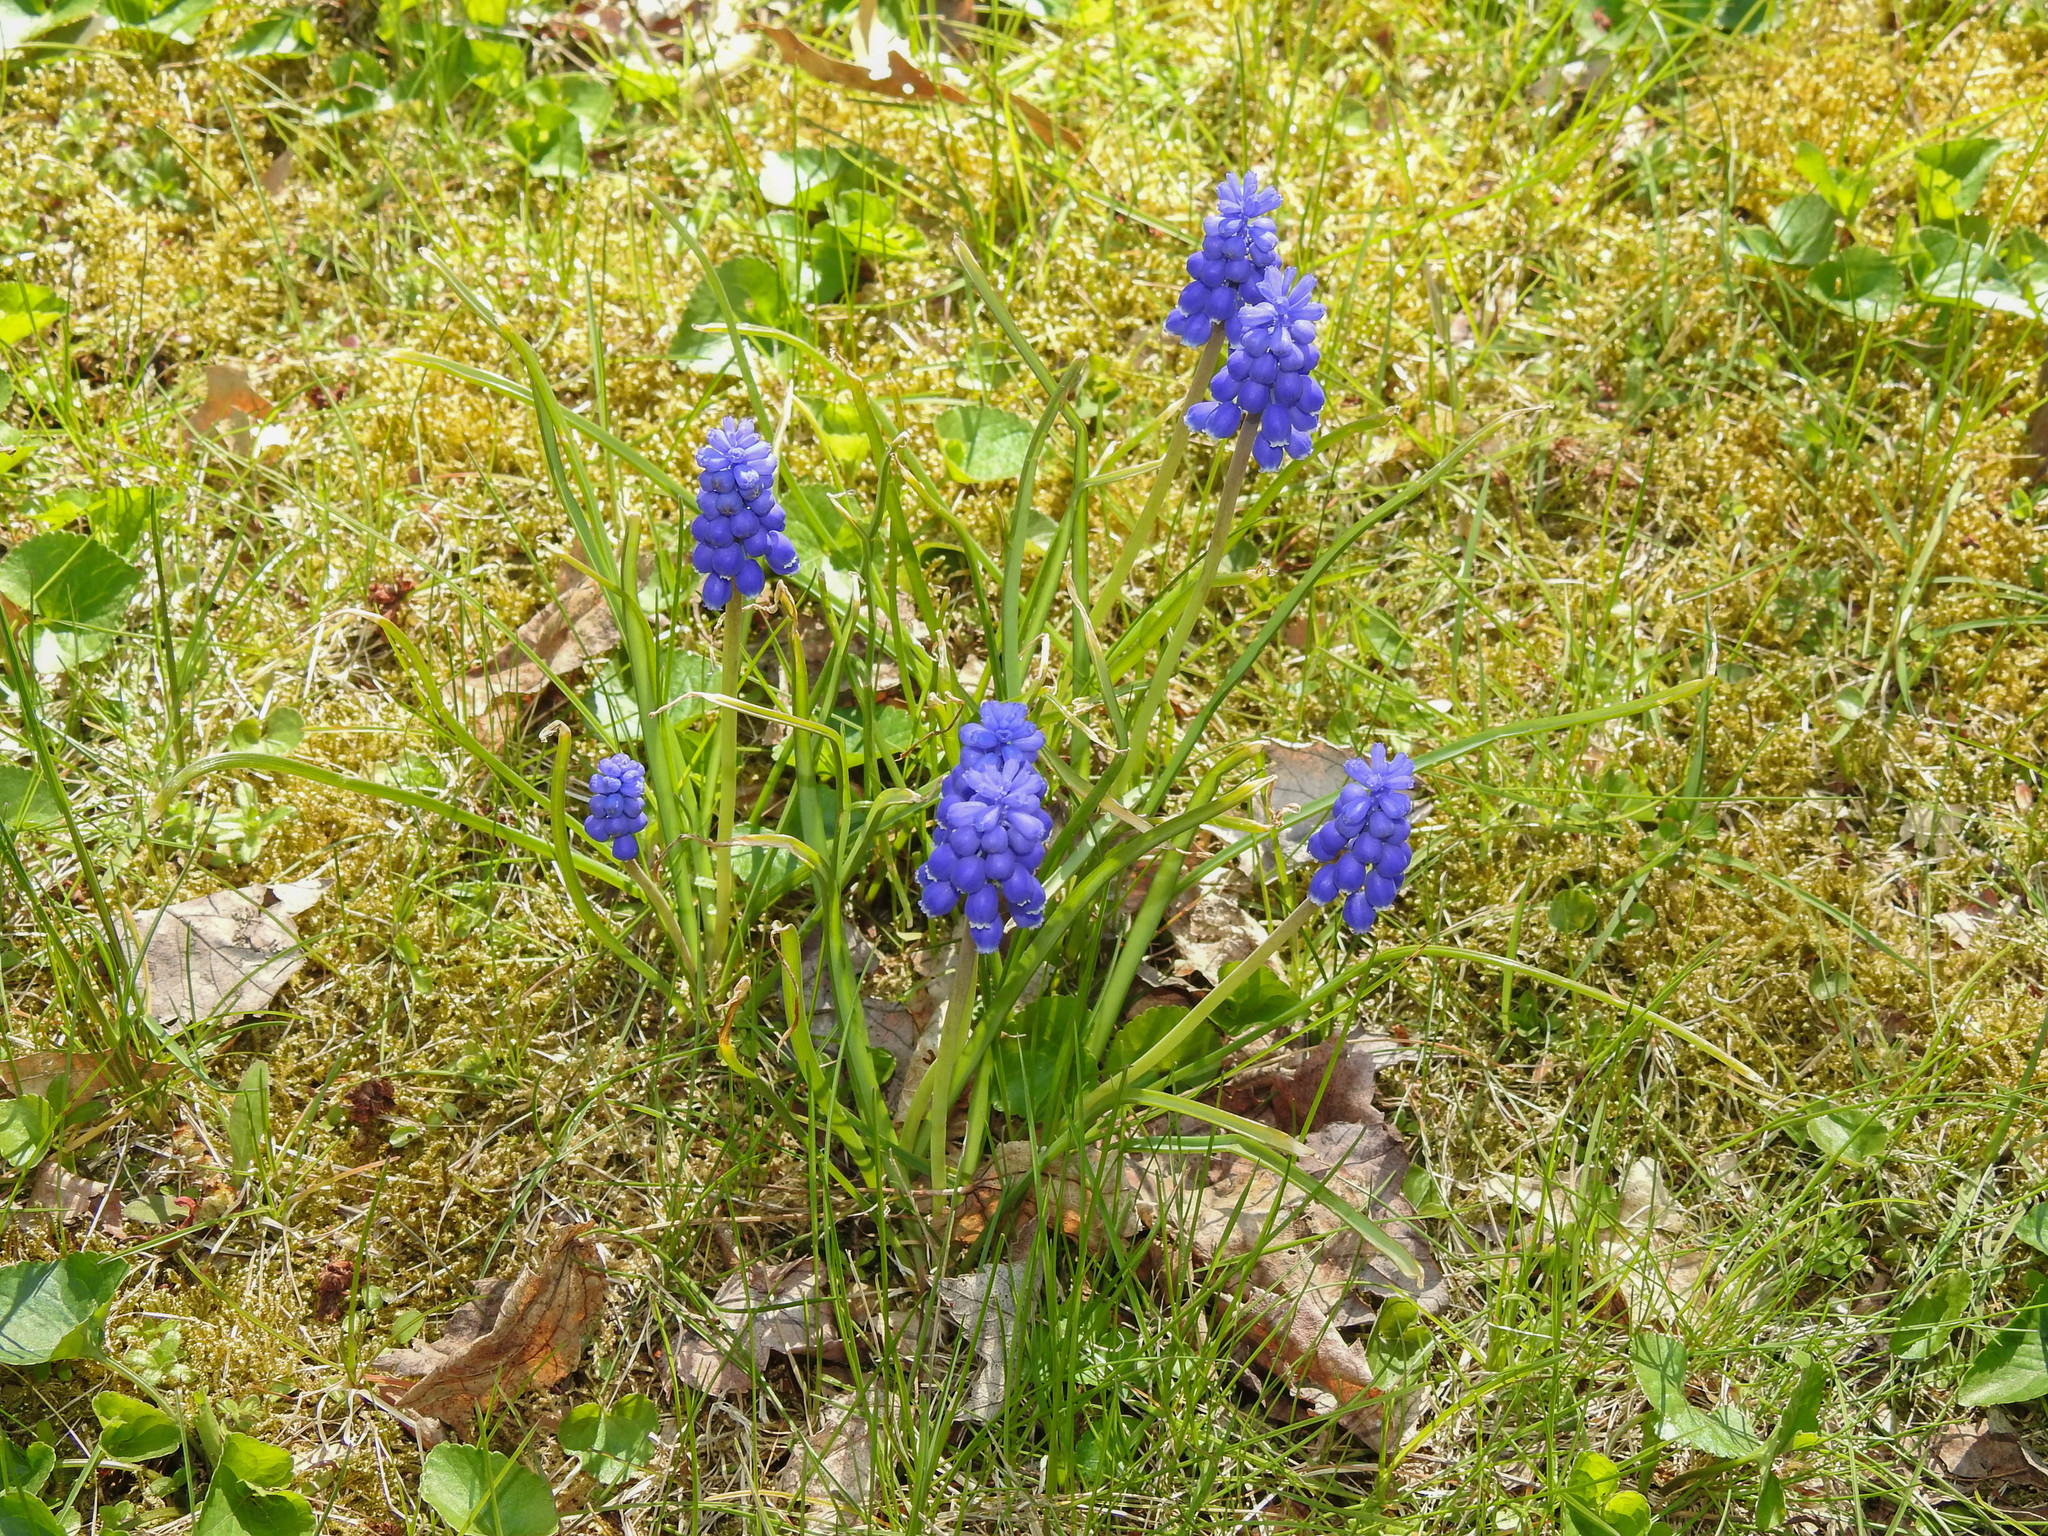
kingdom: Plantae
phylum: Tracheophyta
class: Liliopsida
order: Asparagales
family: Asparagaceae
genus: Muscari
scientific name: Muscari armeniacum
